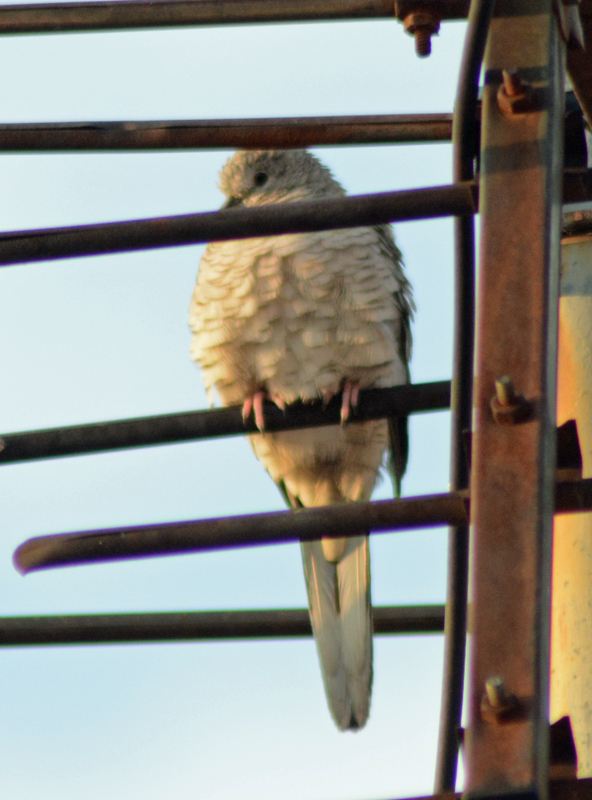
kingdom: Animalia
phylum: Chordata
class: Aves
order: Columbiformes
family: Columbidae
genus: Columbina
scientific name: Columbina inca
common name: Inca dove
